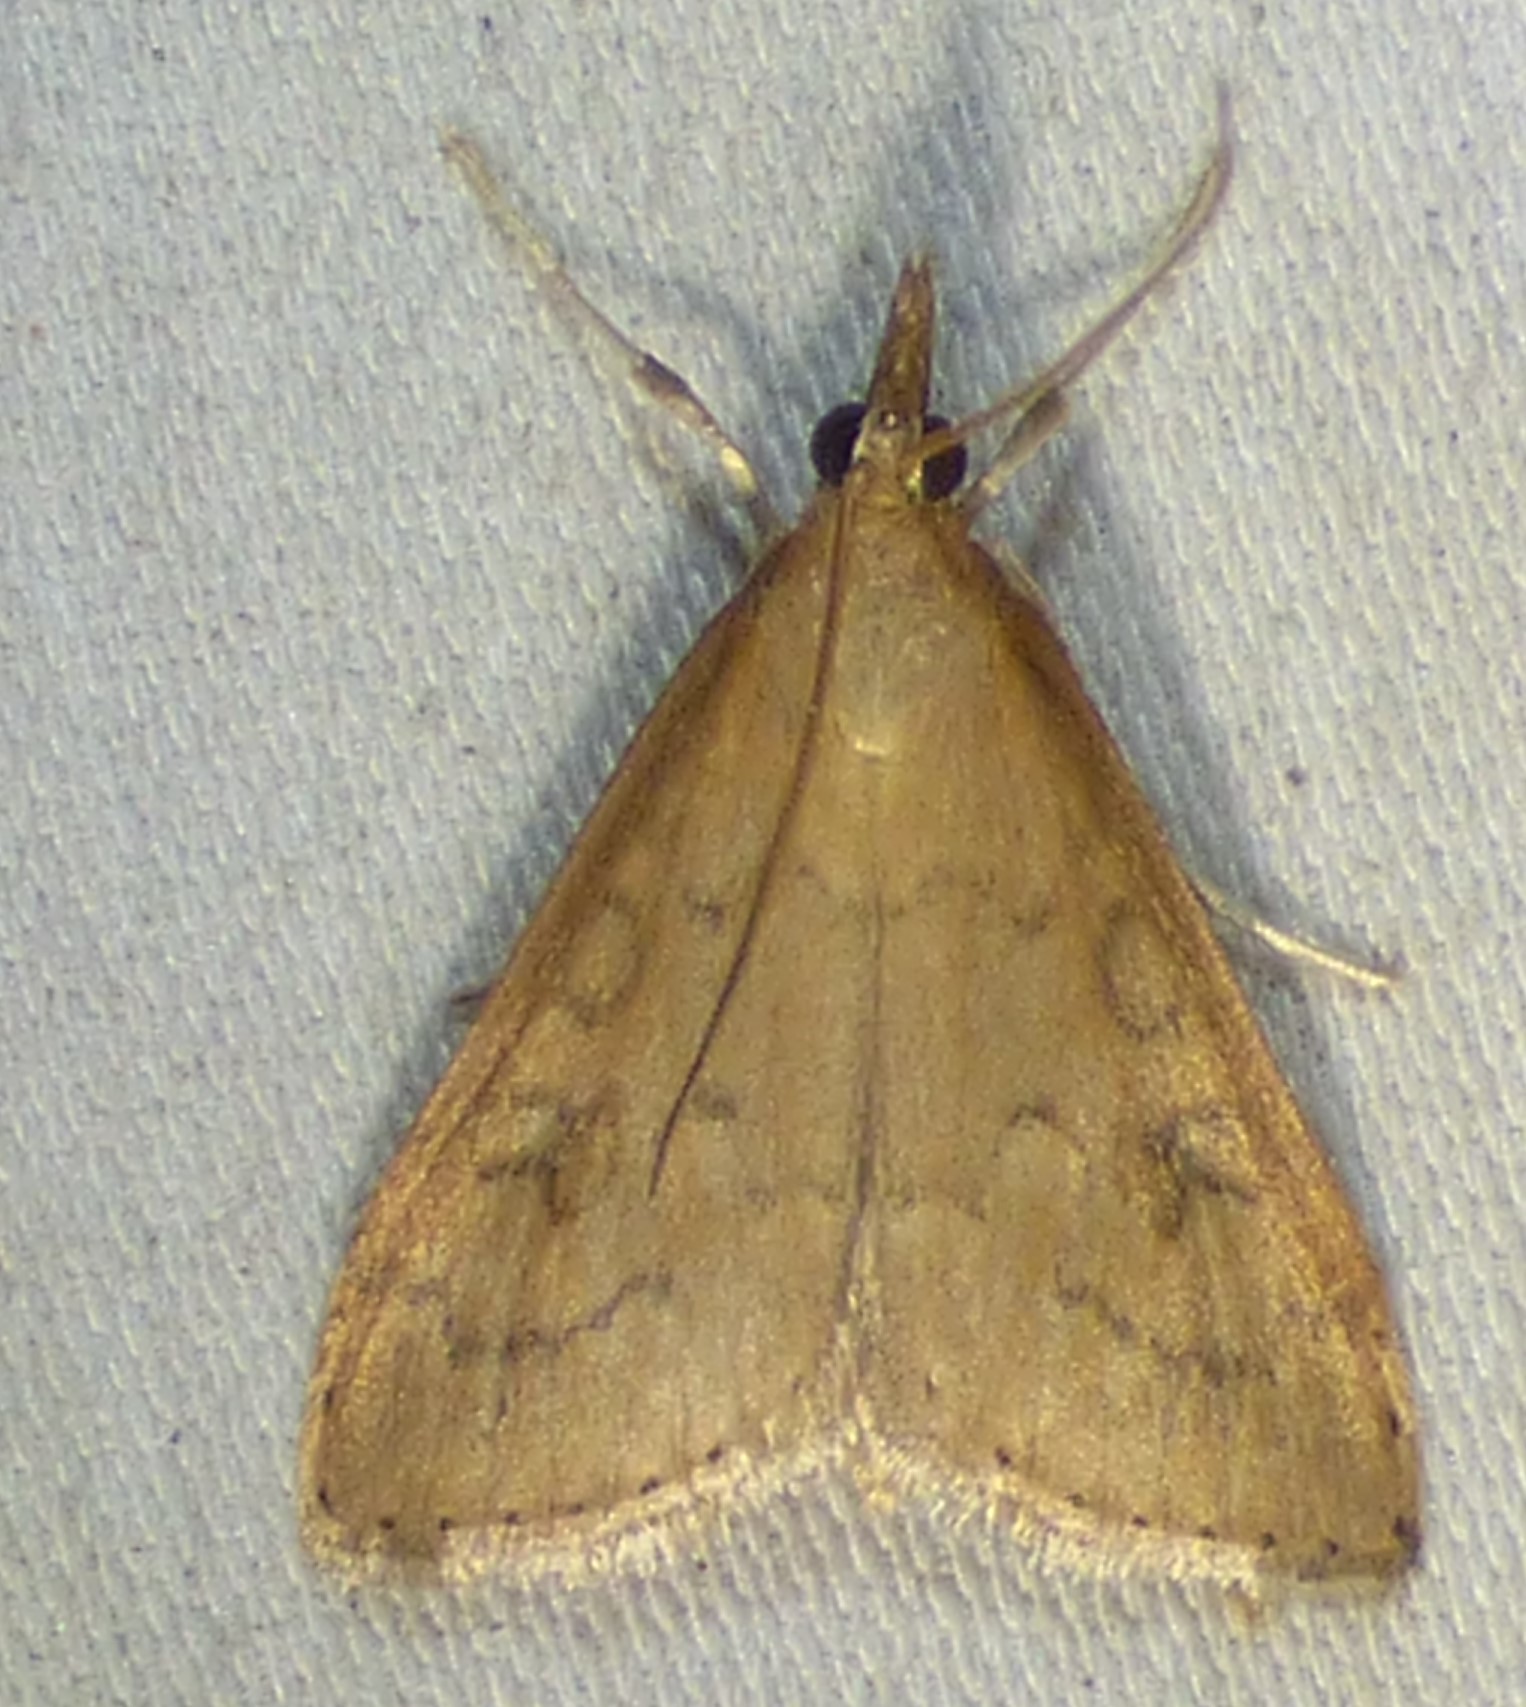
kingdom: Animalia
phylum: Arthropoda
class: Insecta
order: Lepidoptera
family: Crambidae
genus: Udea
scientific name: Udea rubigalis
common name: Celery leaftier moth
